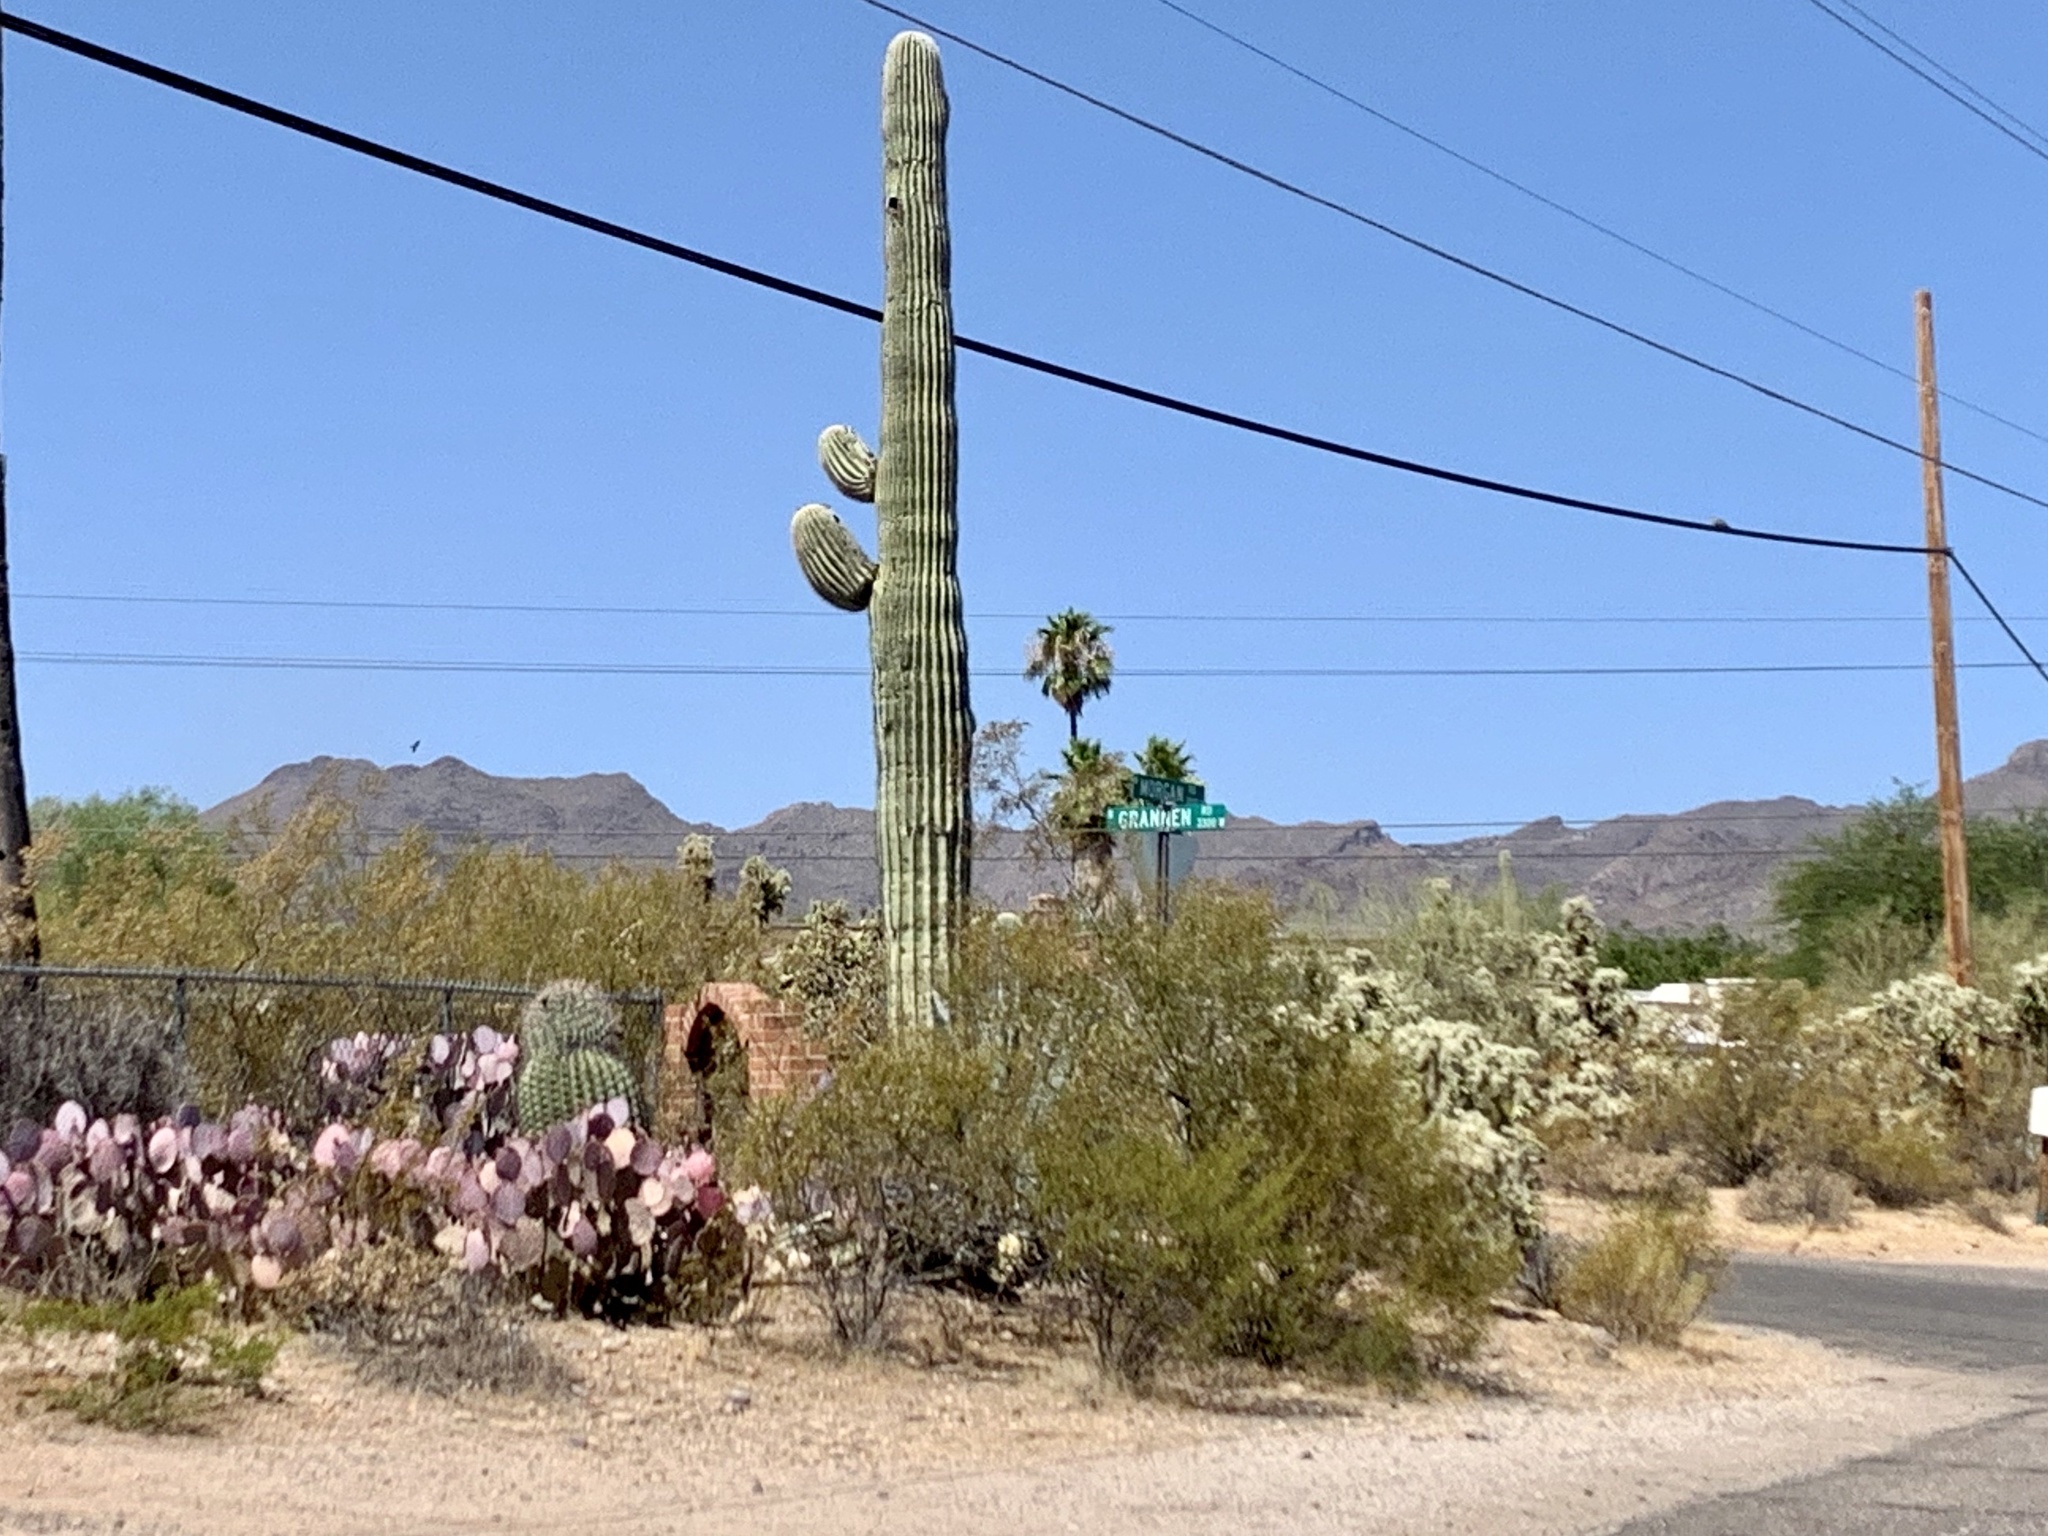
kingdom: Plantae
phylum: Tracheophyta
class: Magnoliopsida
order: Caryophyllales
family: Cactaceae
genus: Carnegiea
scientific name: Carnegiea gigantea
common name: Saguaro
